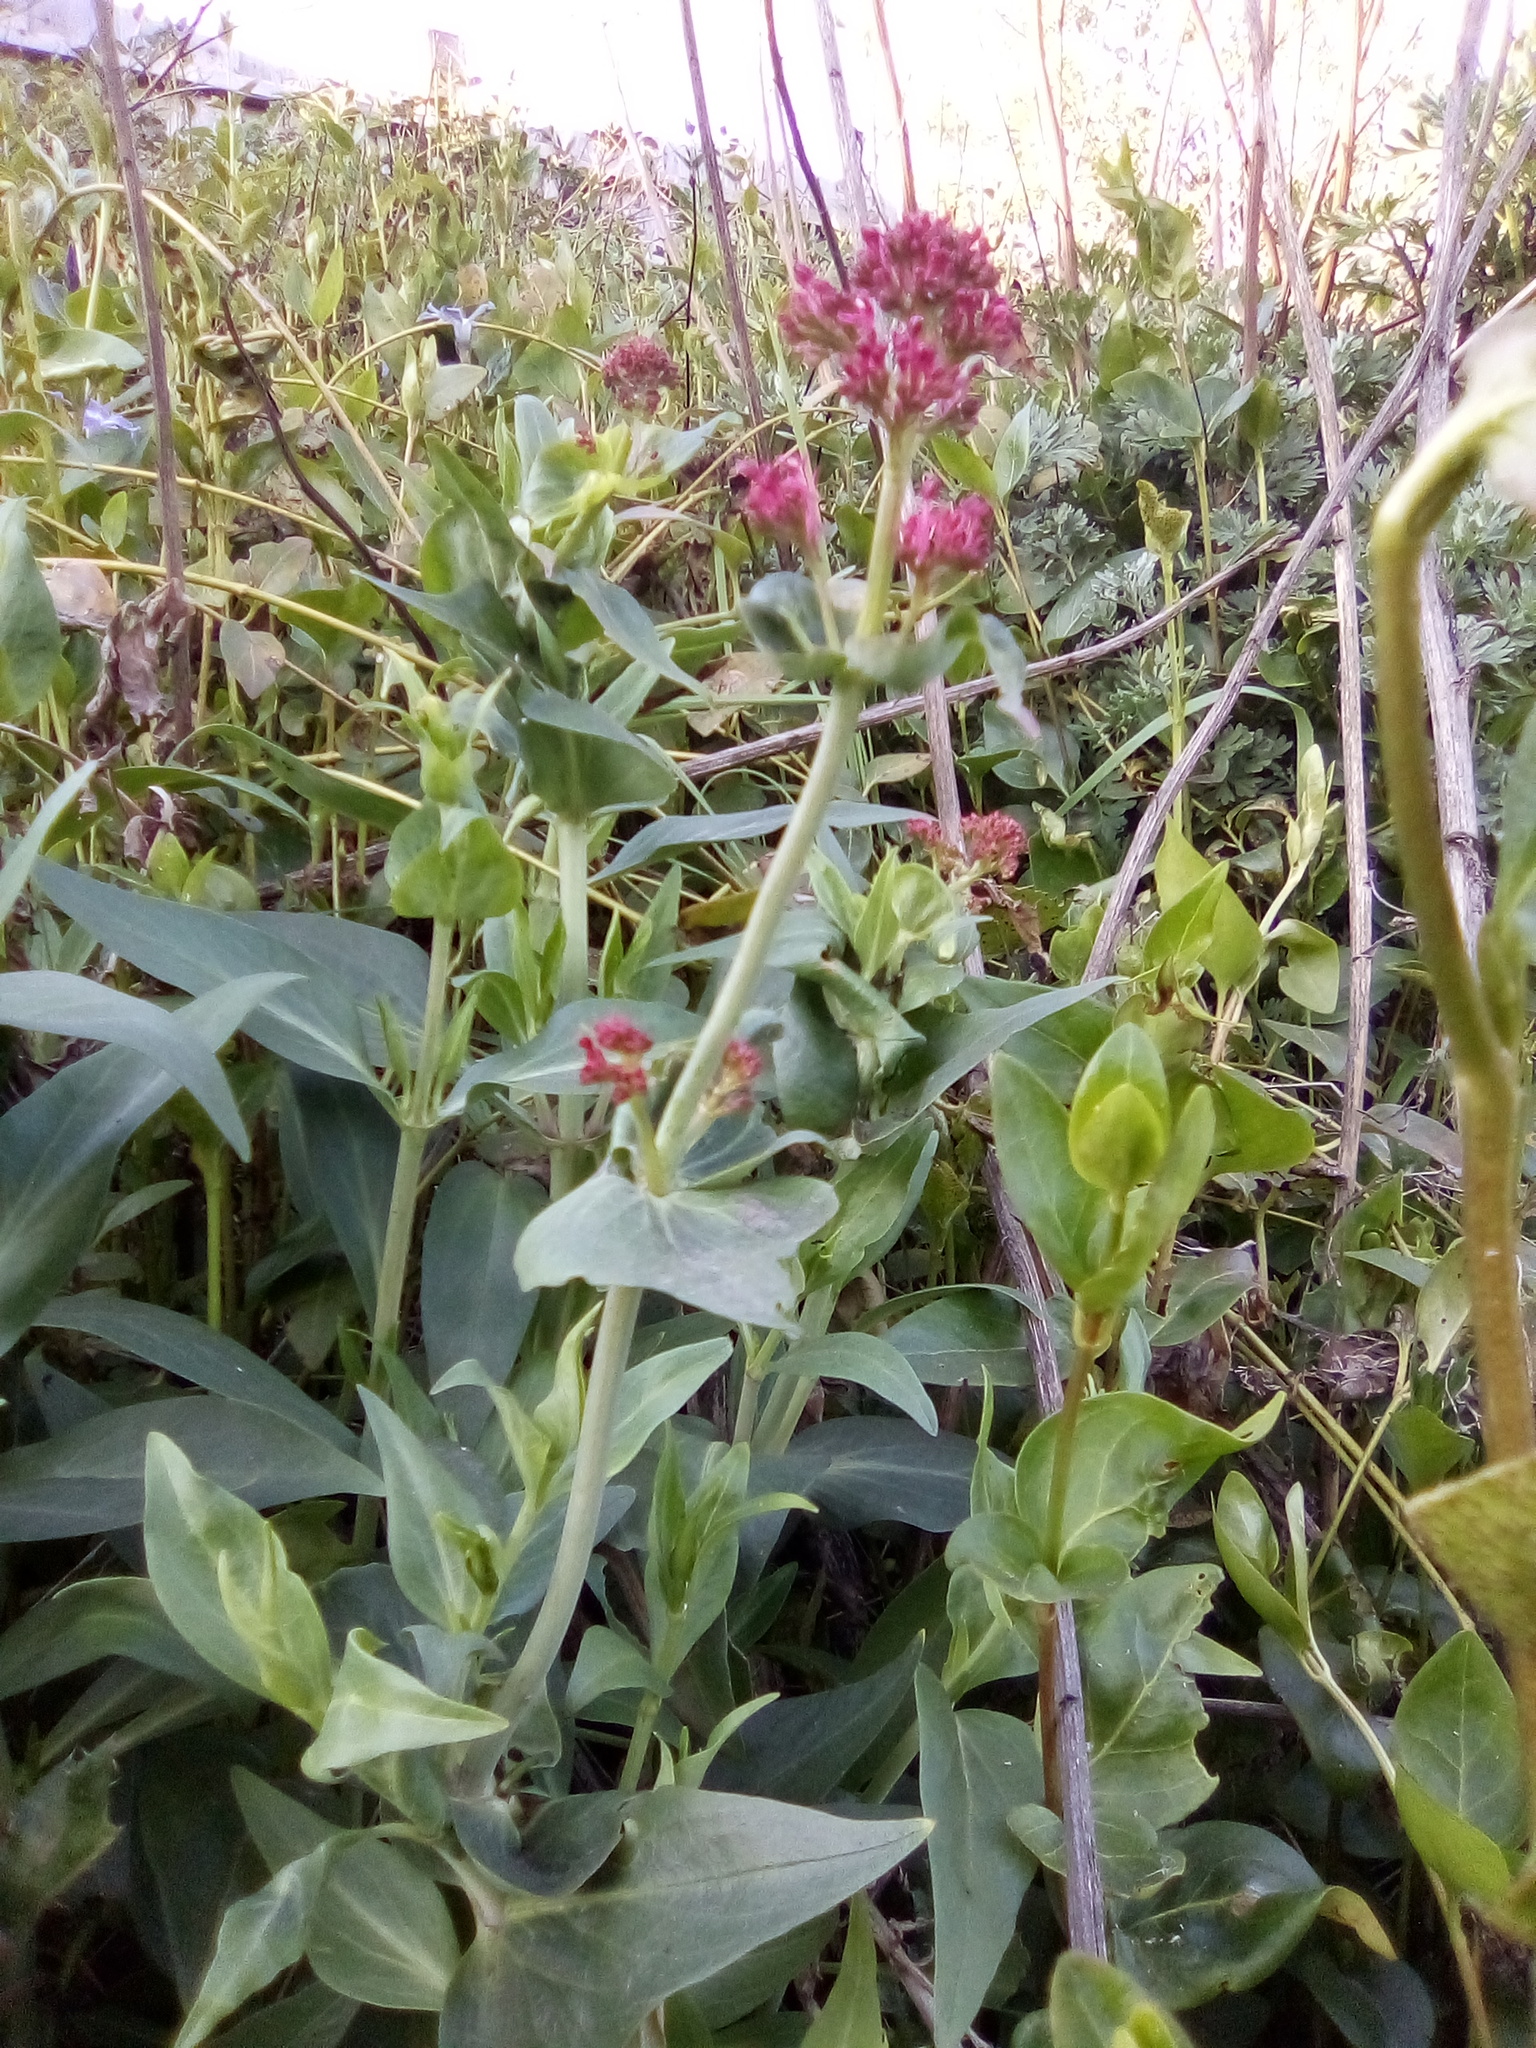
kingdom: Plantae
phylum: Tracheophyta
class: Magnoliopsida
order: Dipsacales
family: Caprifoliaceae
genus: Centranthus
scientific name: Centranthus ruber
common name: Red valerian
